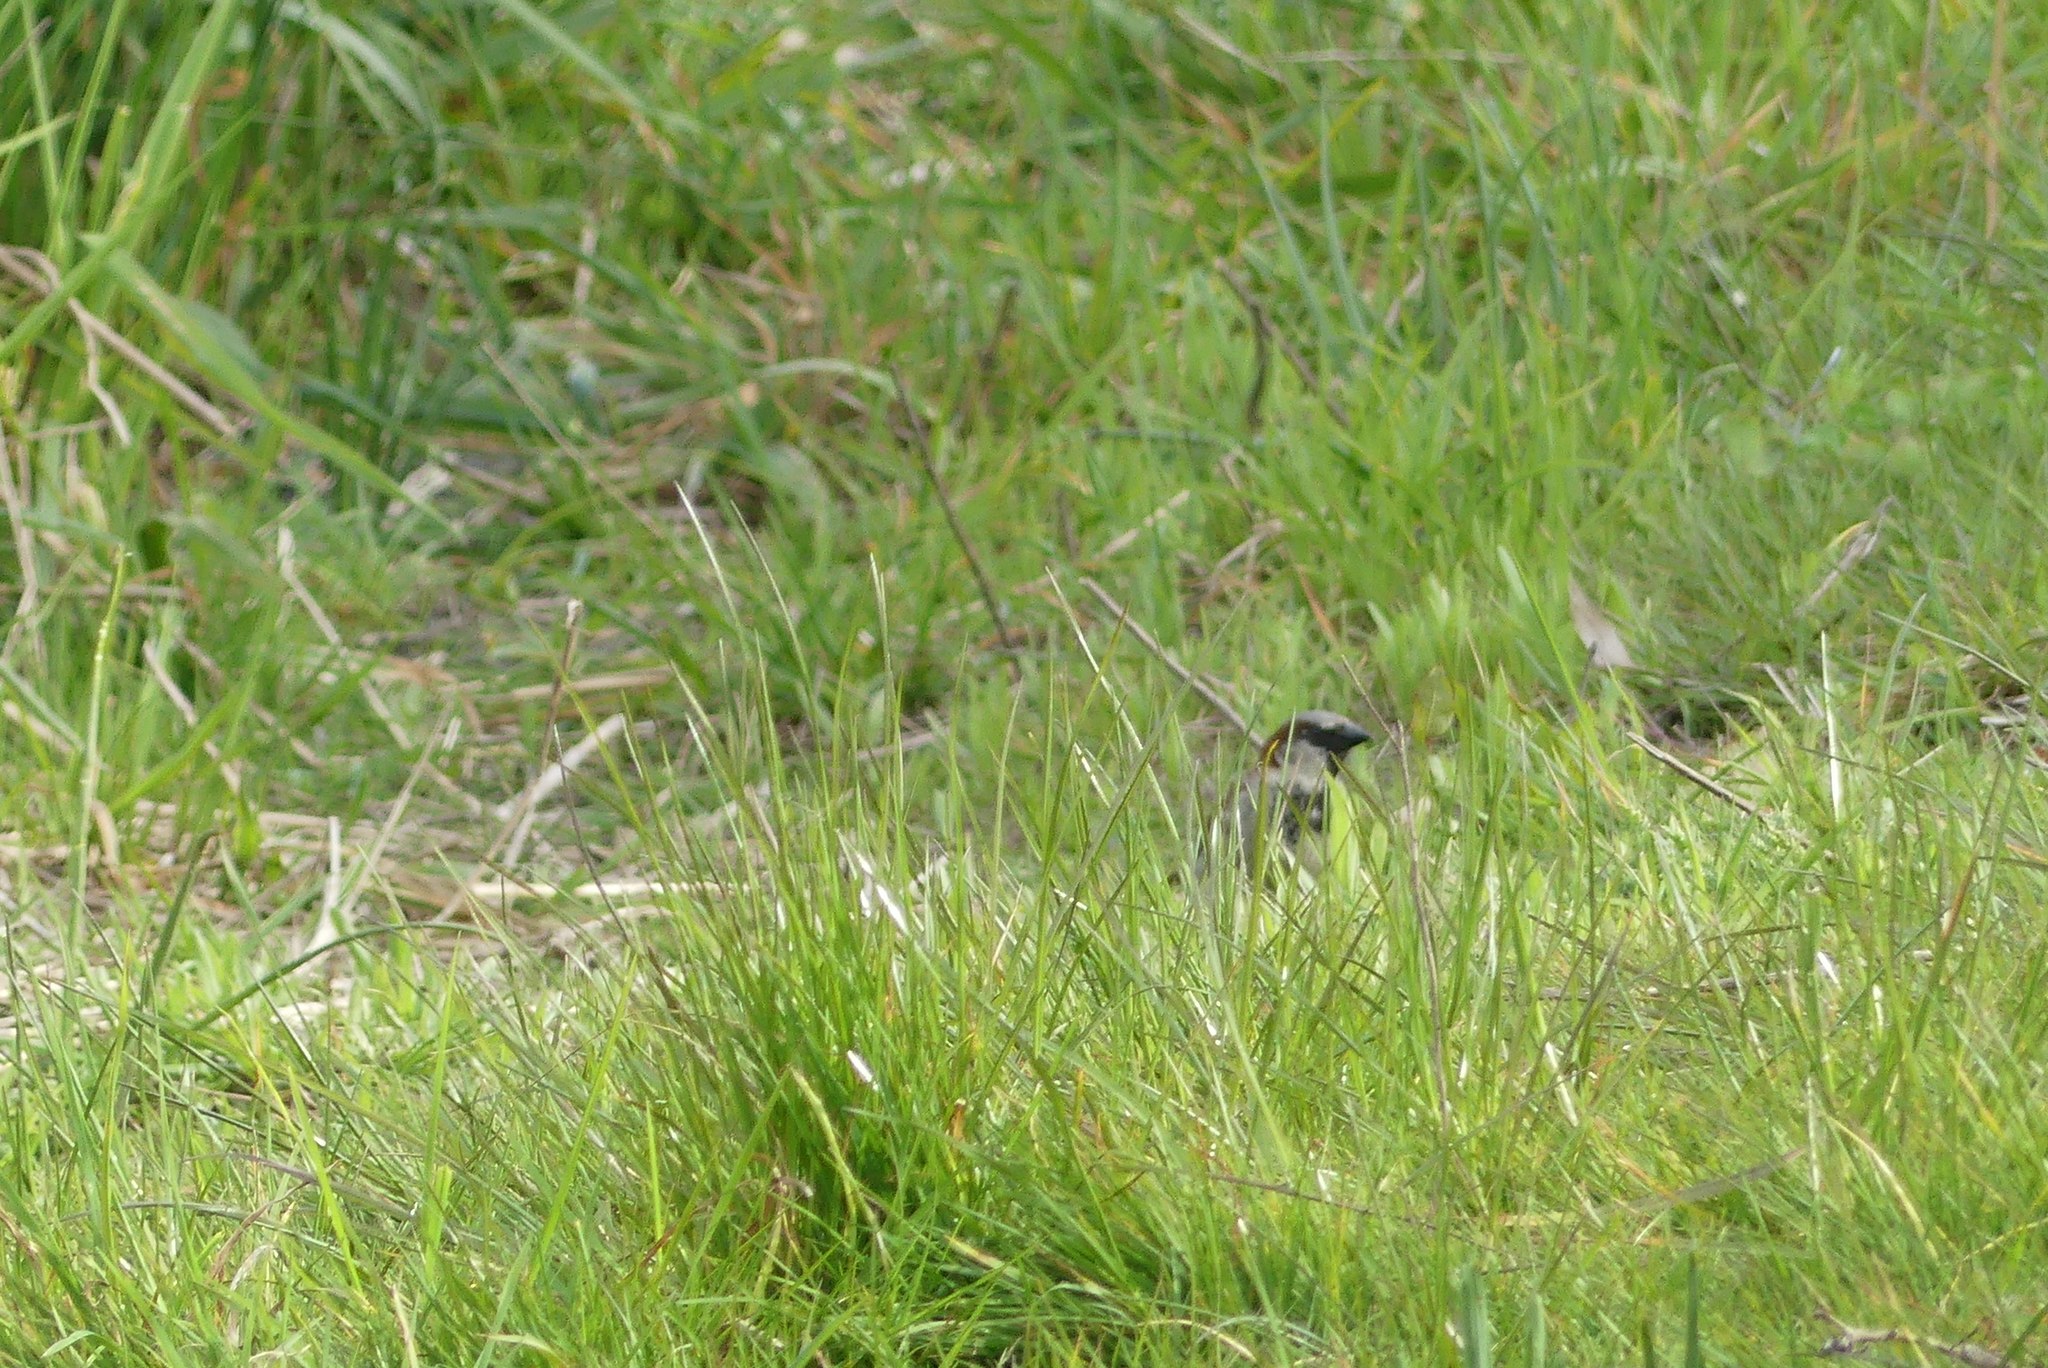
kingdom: Animalia
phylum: Chordata
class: Aves
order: Passeriformes
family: Passeridae
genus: Passer
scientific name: Passer domesticus
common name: House sparrow
